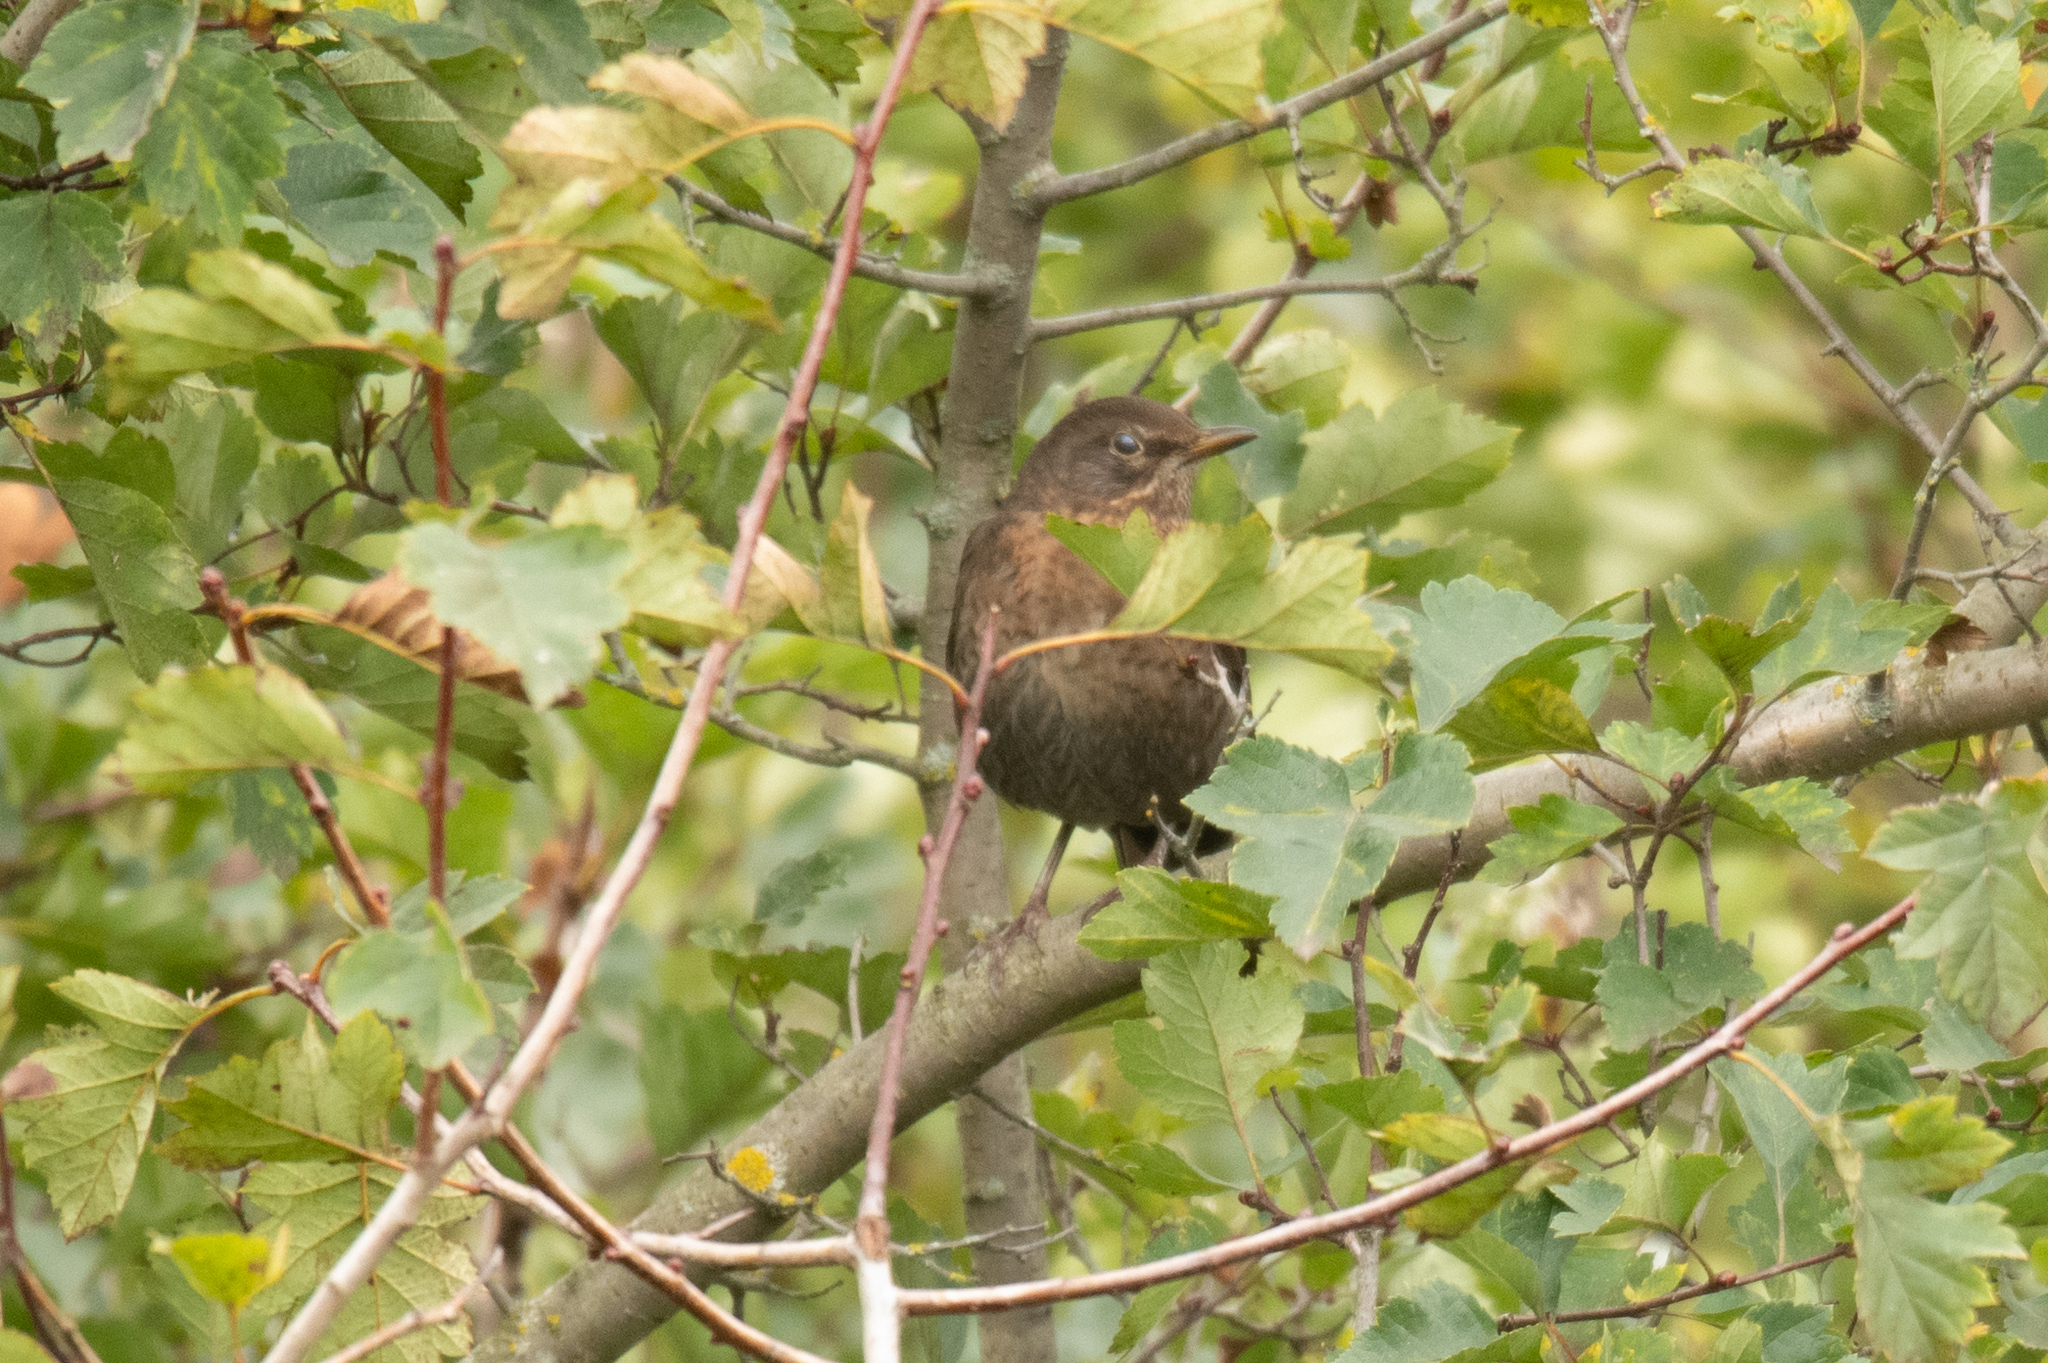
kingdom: Animalia
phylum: Chordata
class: Aves
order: Passeriformes
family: Turdidae
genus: Turdus
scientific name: Turdus merula
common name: Common blackbird
